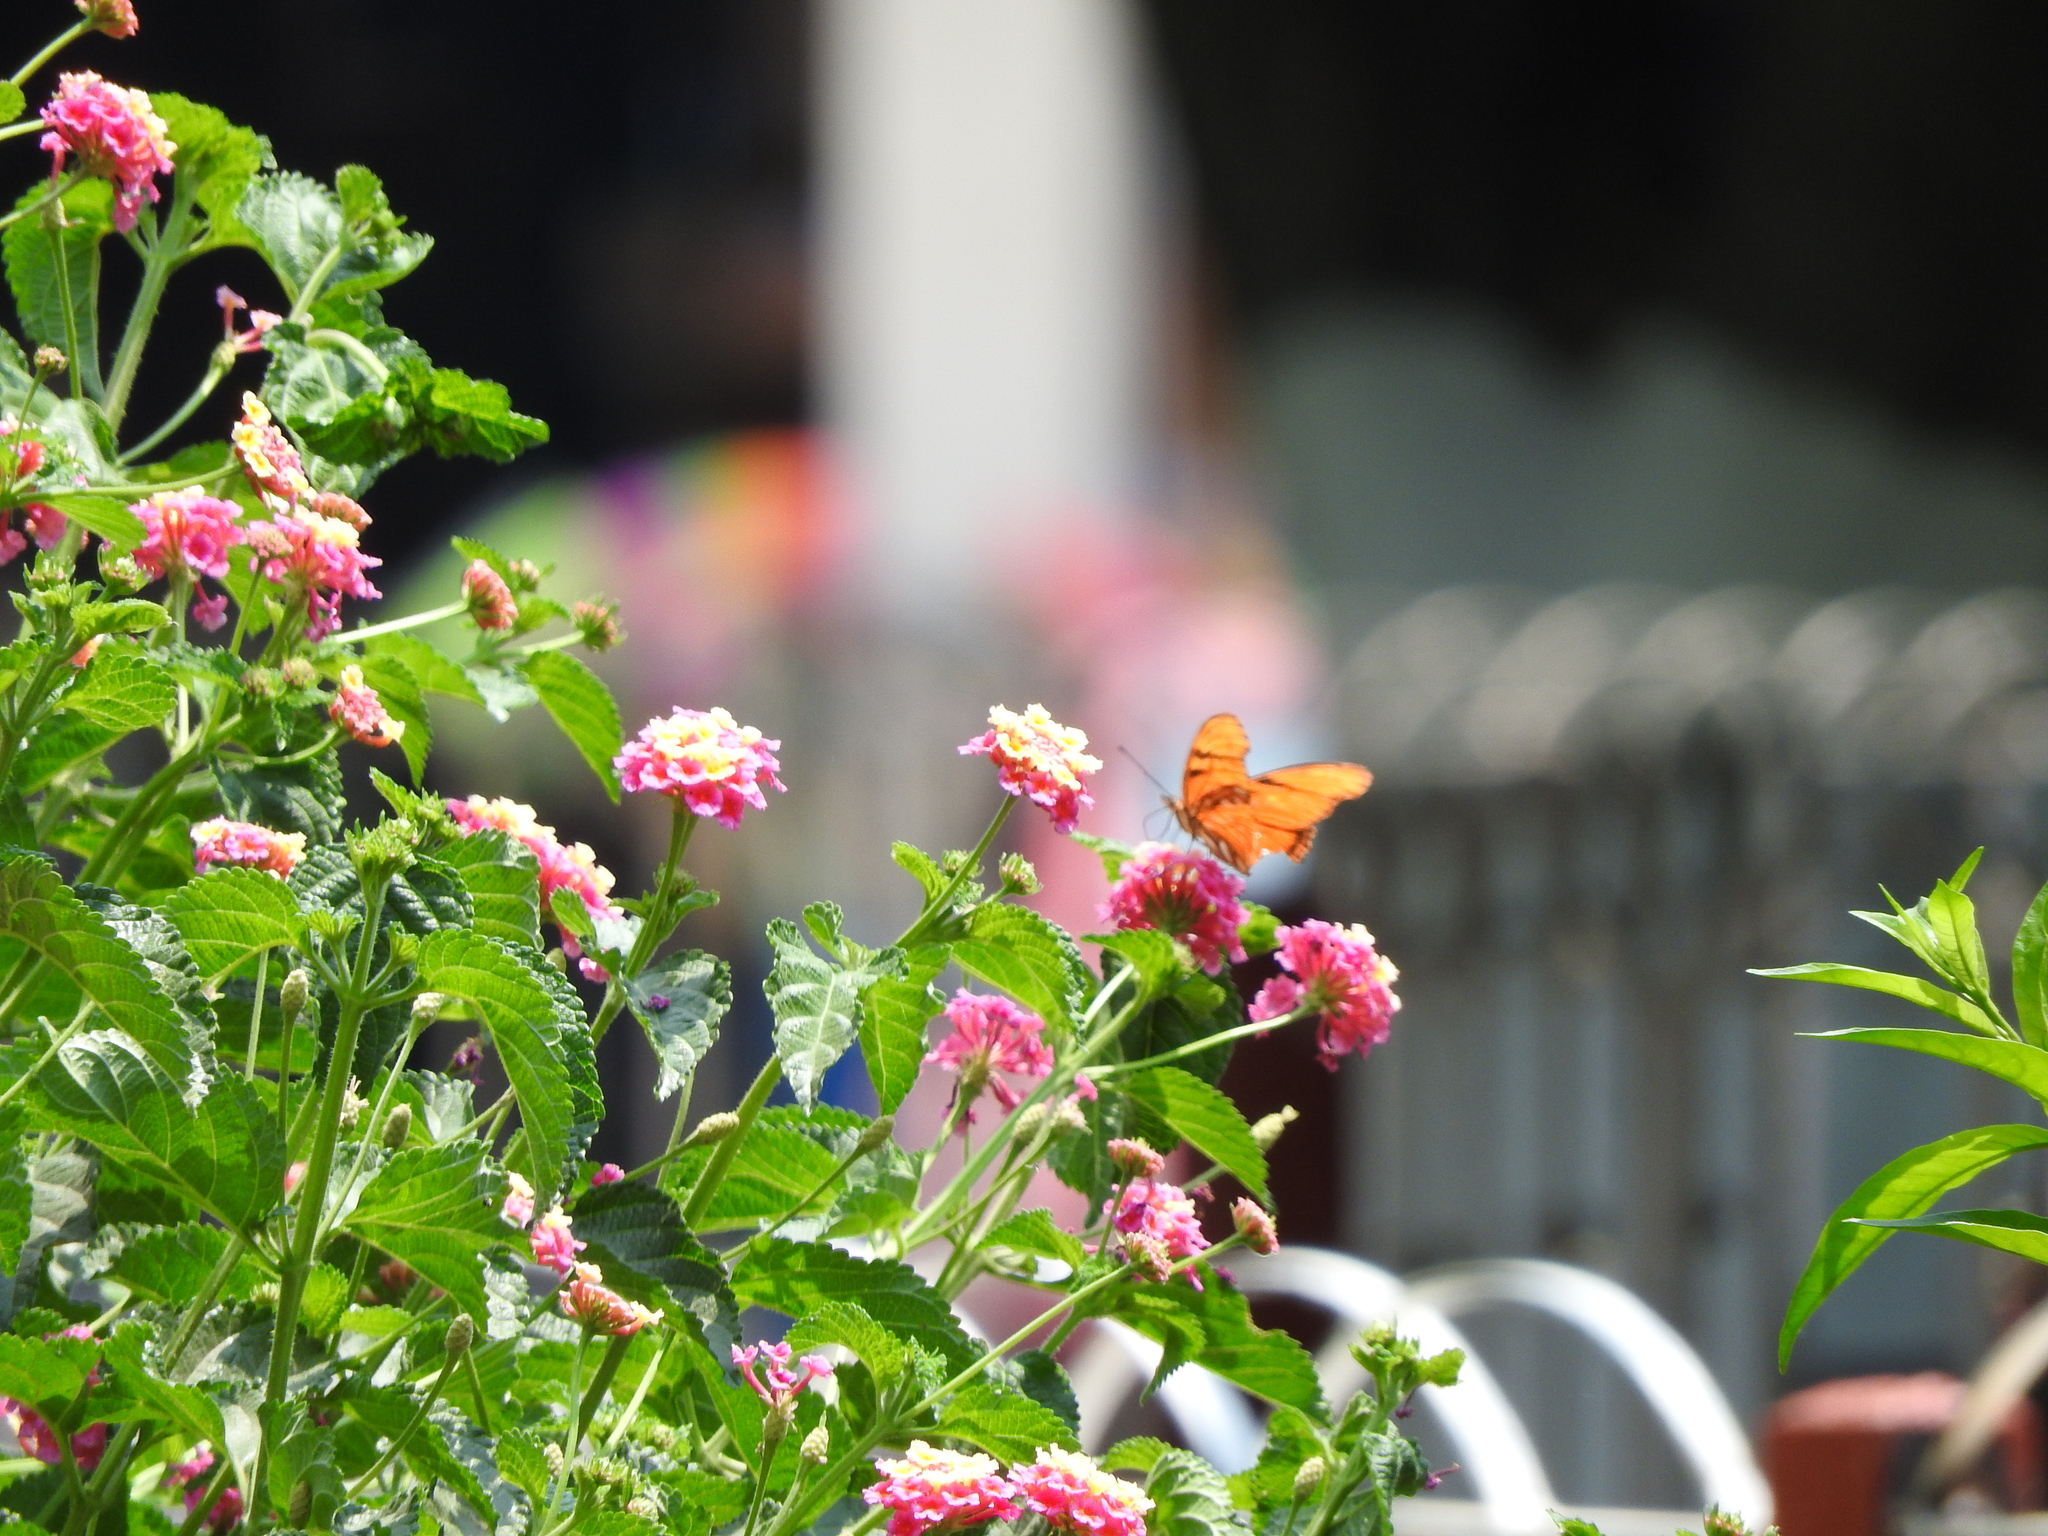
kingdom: Animalia
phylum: Arthropoda
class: Insecta
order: Lepidoptera
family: Nymphalidae
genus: Dione
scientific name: Dione juno
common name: Juno silverspot
